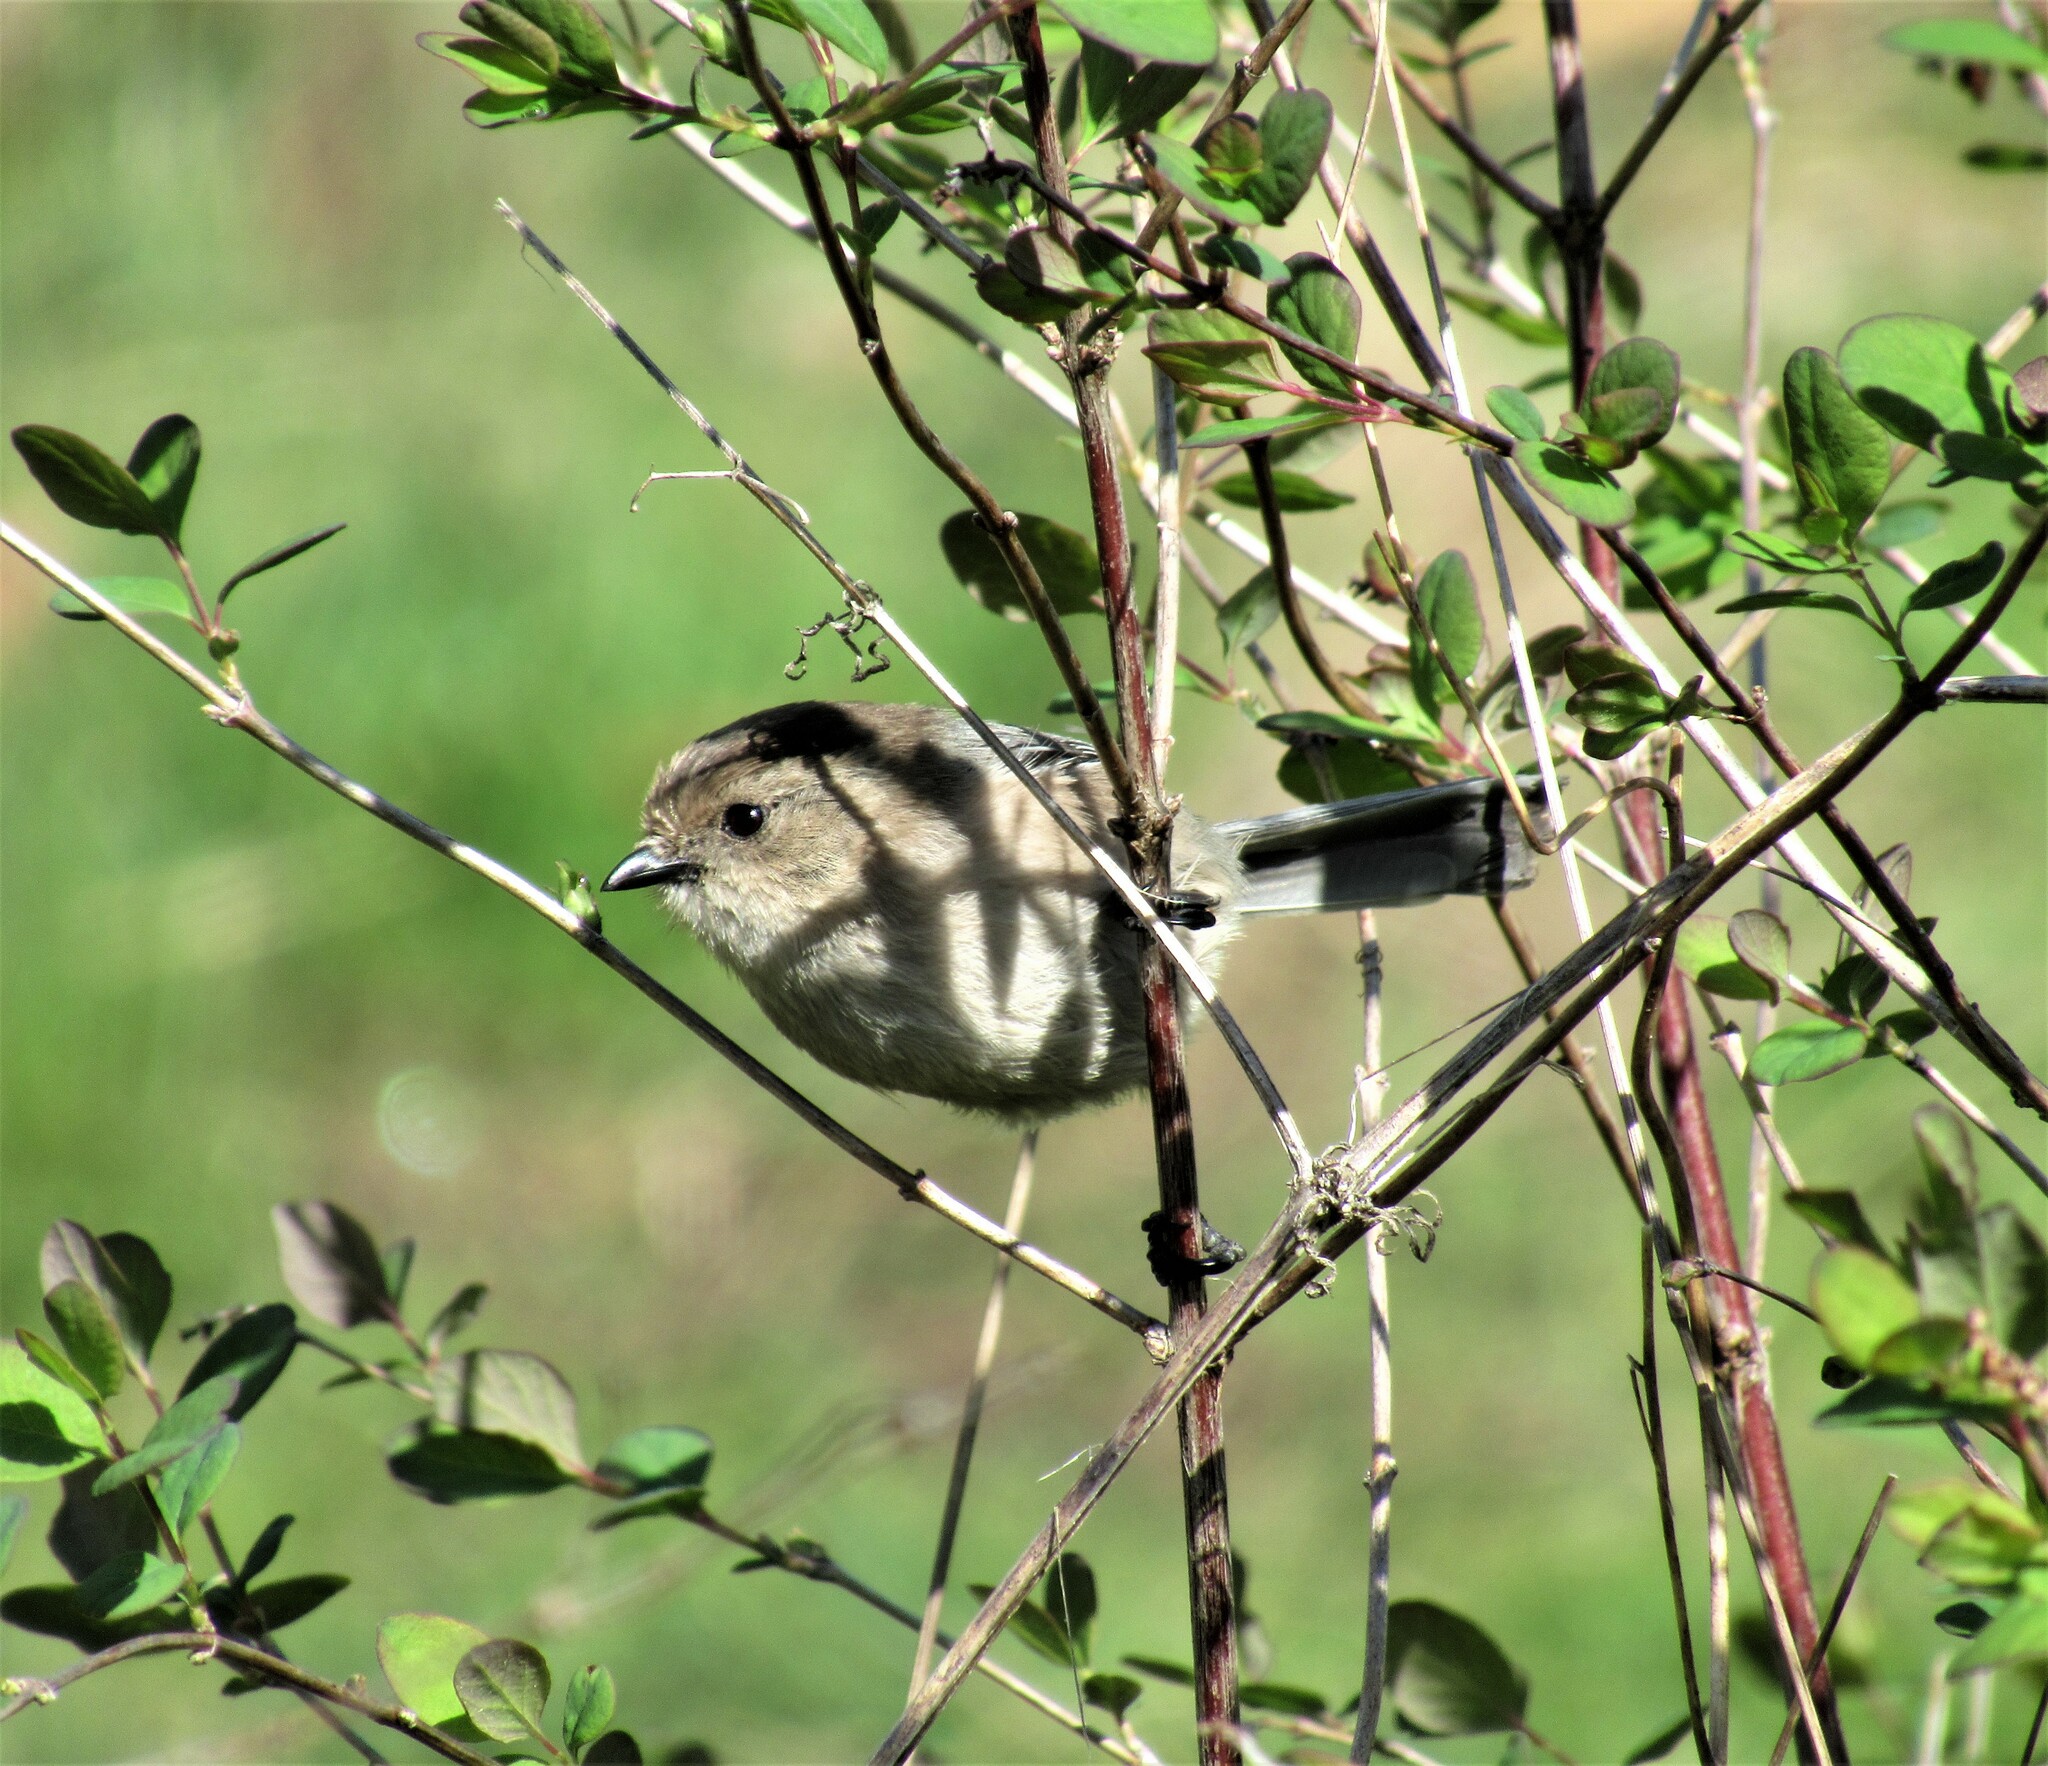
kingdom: Animalia
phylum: Chordata
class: Aves
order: Passeriformes
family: Aegithalidae
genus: Psaltriparus
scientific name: Psaltriparus minimus
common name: American bushtit
